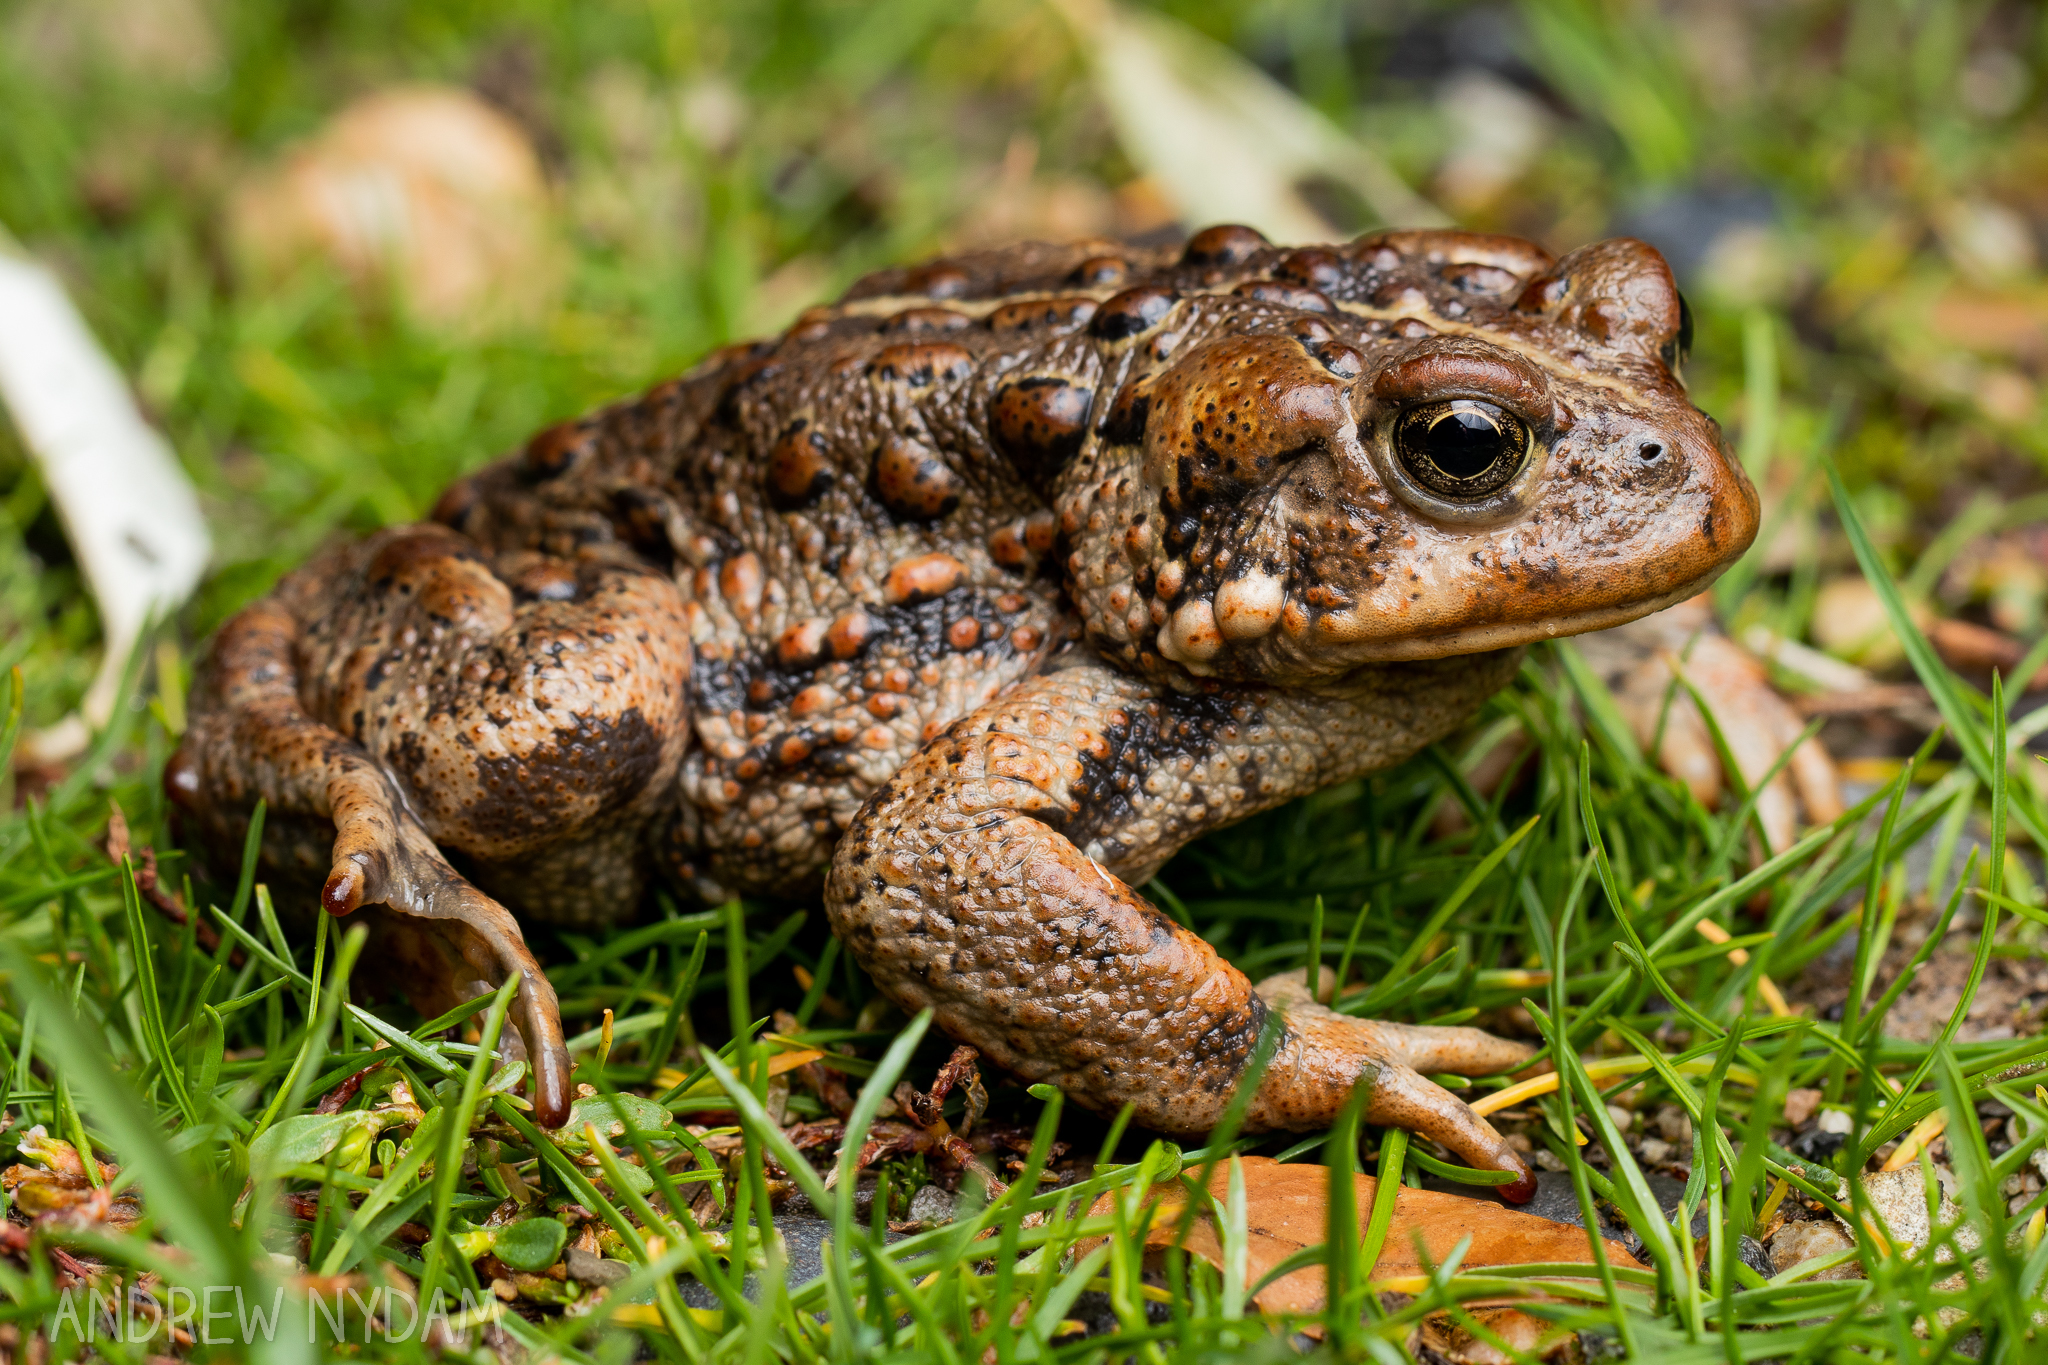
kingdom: Animalia
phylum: Chordata
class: Amphibia
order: Anura
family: Bufonidae
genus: Anaxyrus
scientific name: Anaxyrus boreas
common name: Western toad
